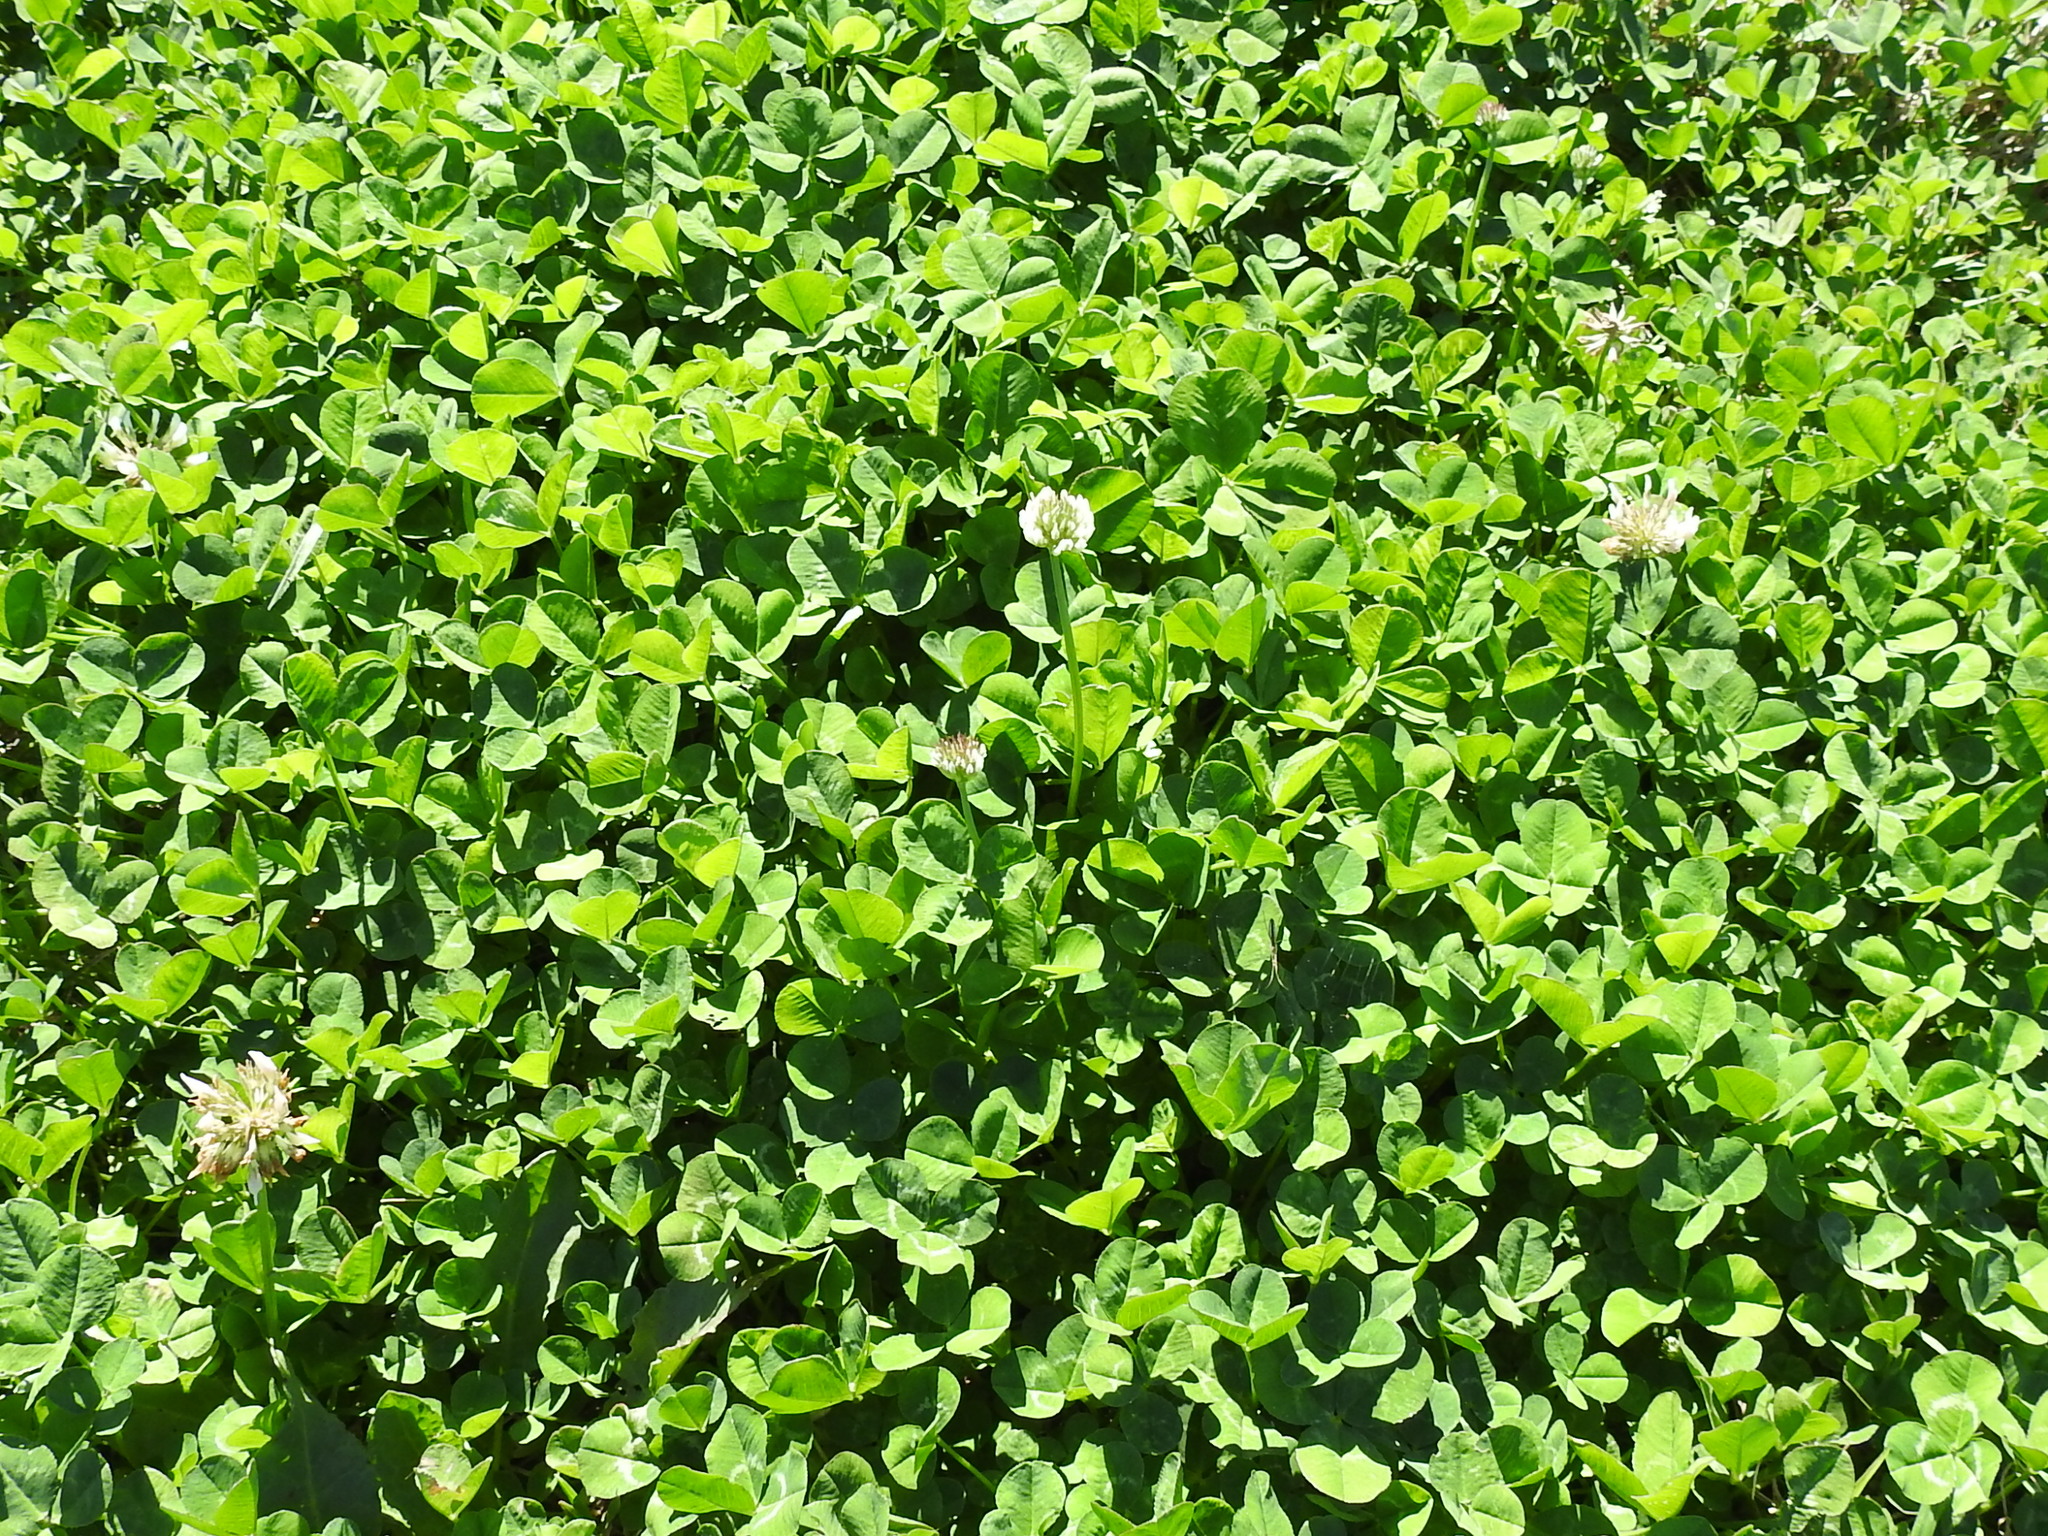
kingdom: Plantae
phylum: Tracheophyta
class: Magnoliopsida
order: Fabales
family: Fabaceae
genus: Trifolium
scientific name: Trifolium repens
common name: White clover
